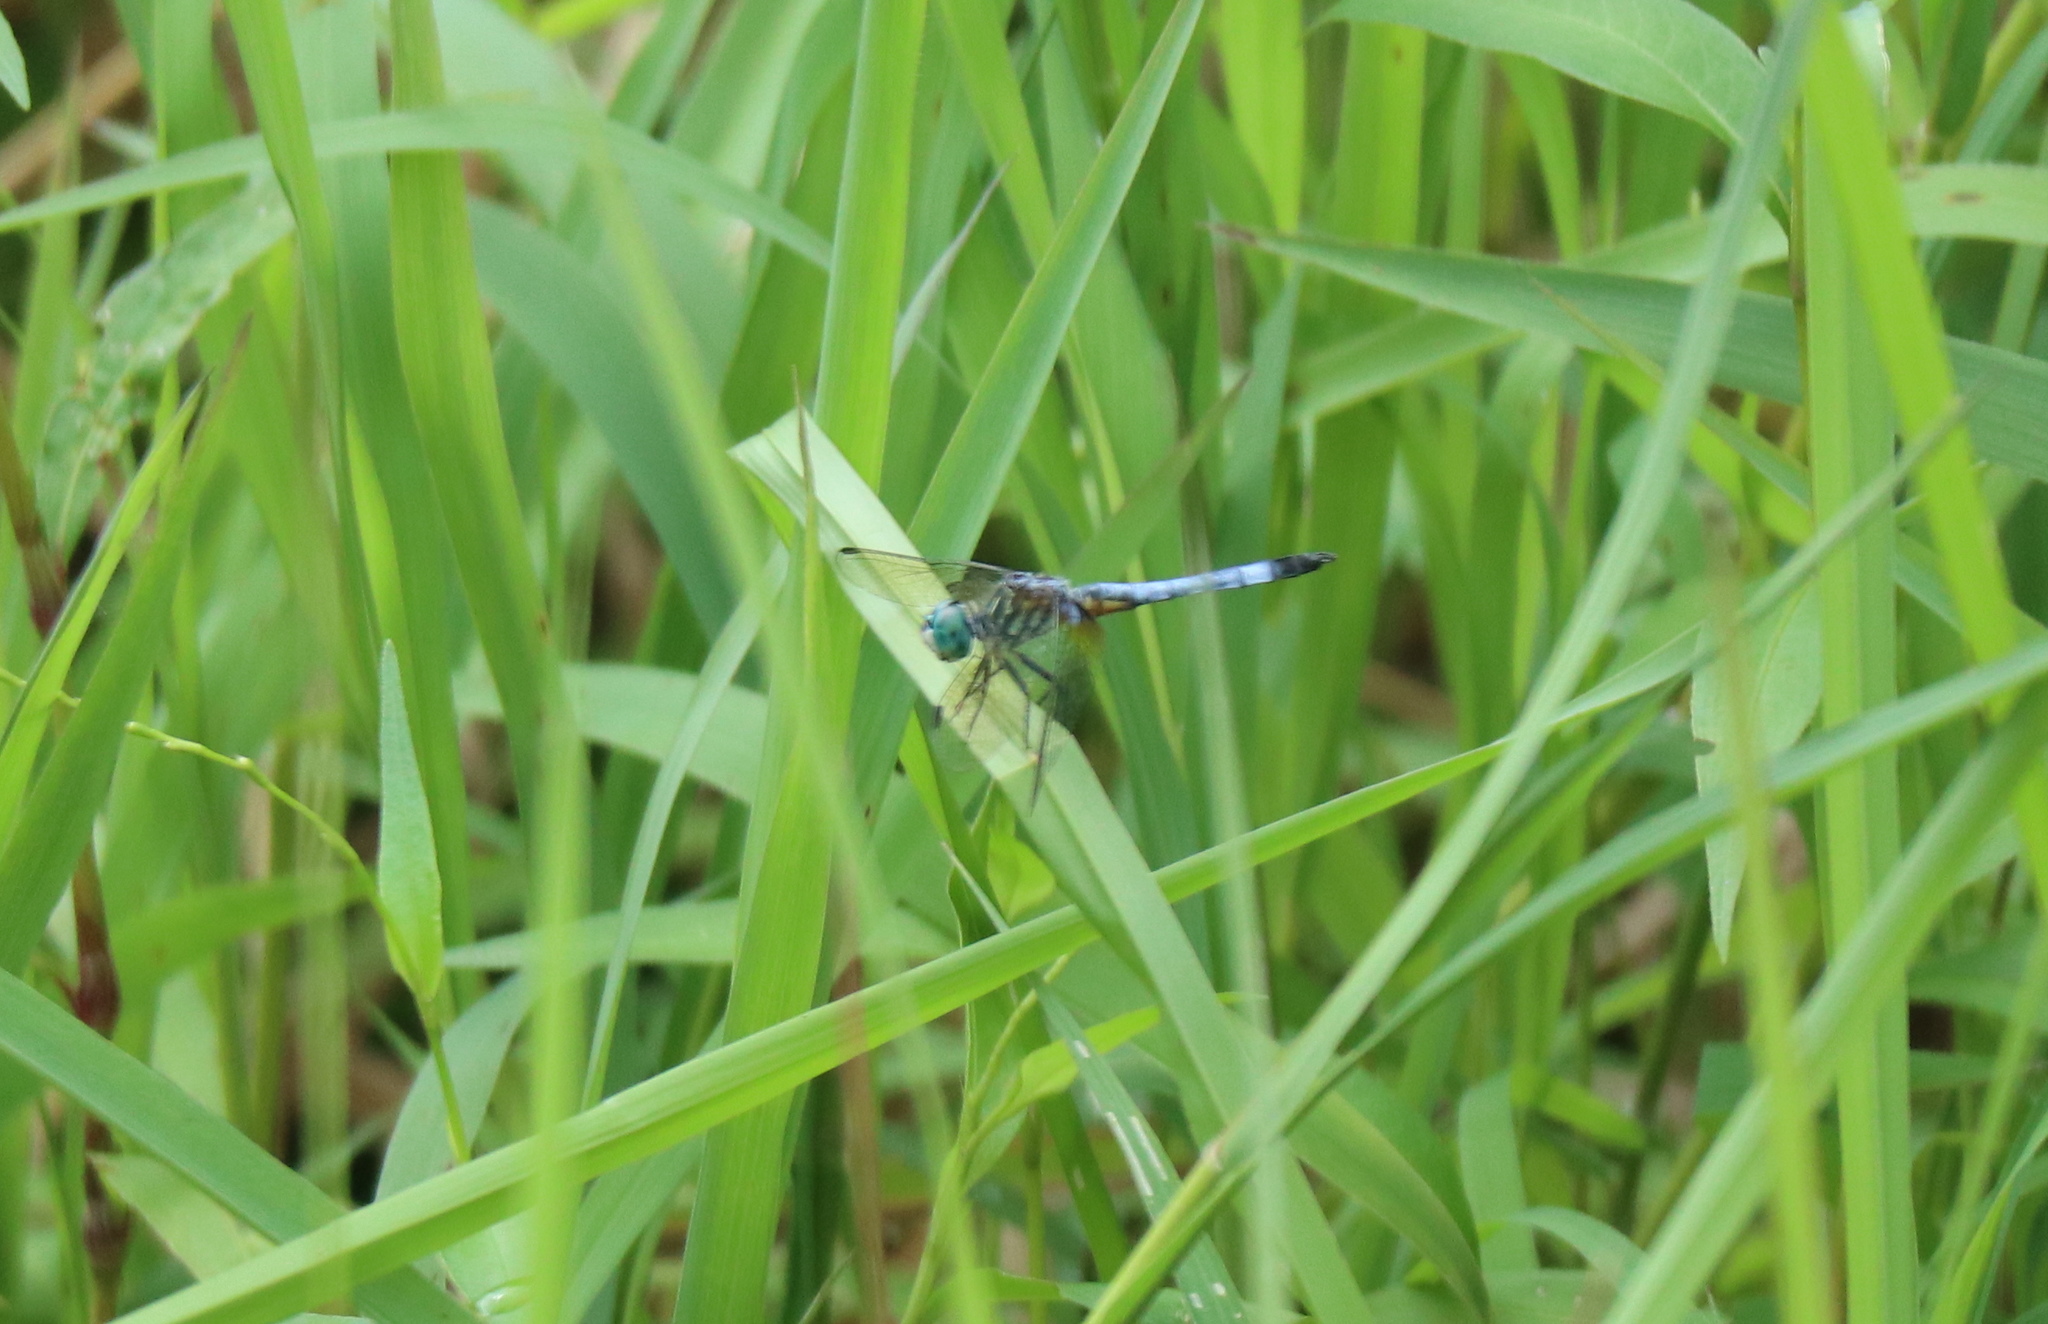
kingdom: Animalia
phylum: Arthropoda
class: Insecta
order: Odonata
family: Libellulidae
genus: Pachydiplax
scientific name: Pachydiplax longipennis
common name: Blue dasher
